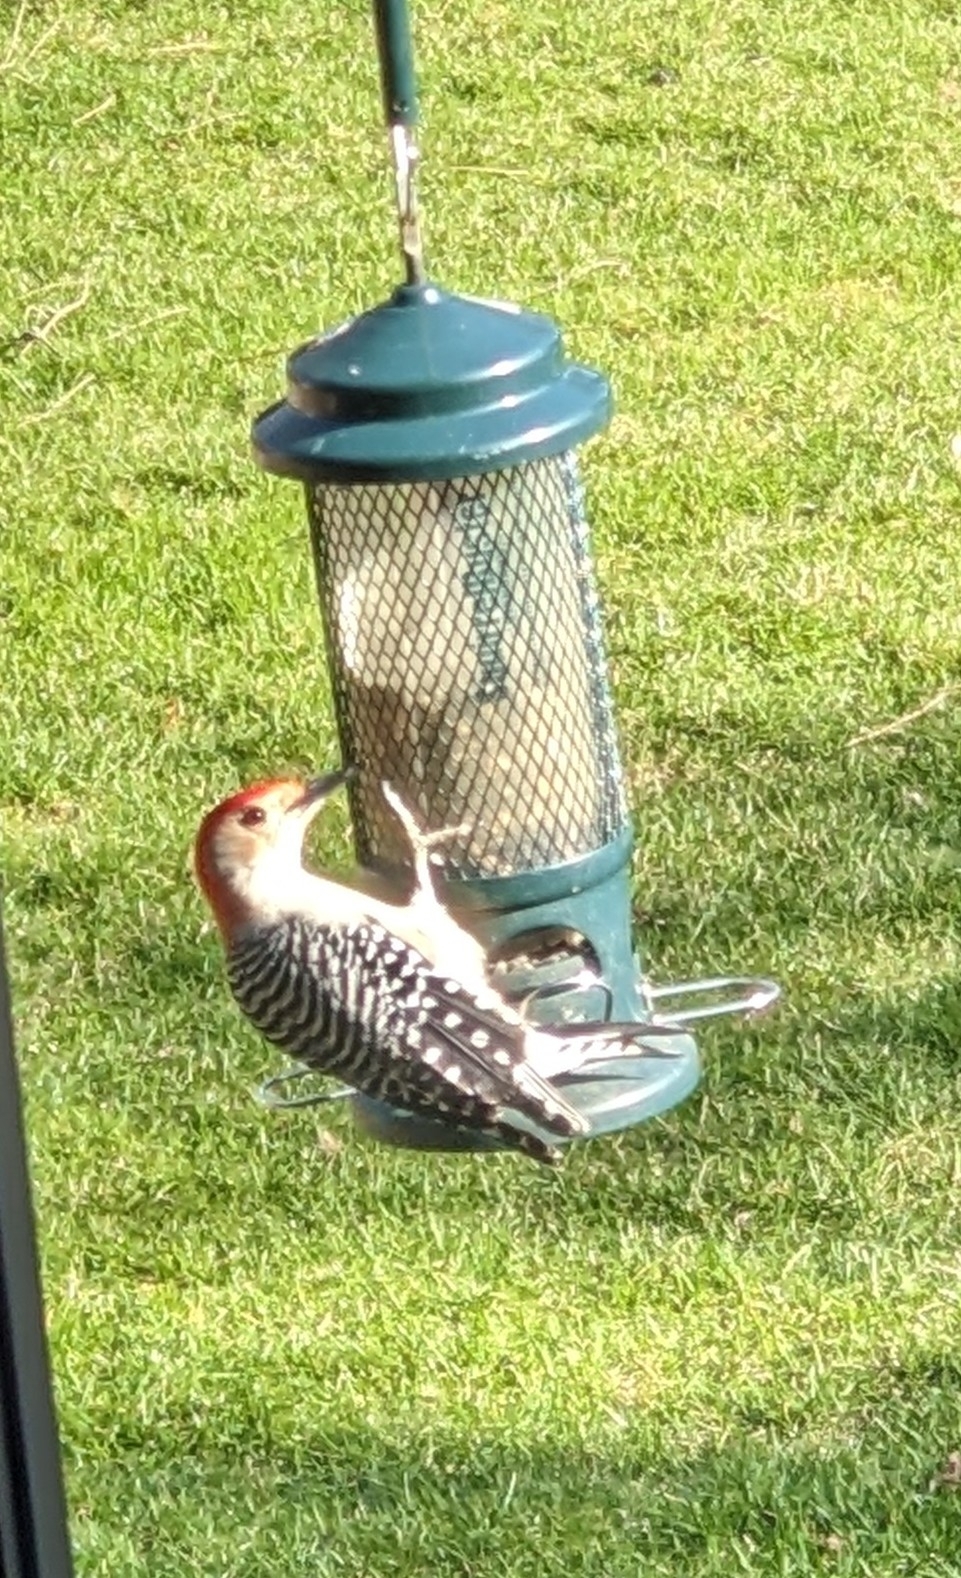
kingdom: Animalia
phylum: Chordata
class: Aves
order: Piciformes
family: Picidae
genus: Melanerpes
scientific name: Melanerpes carolinus
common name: Red-bellied woodpecker
